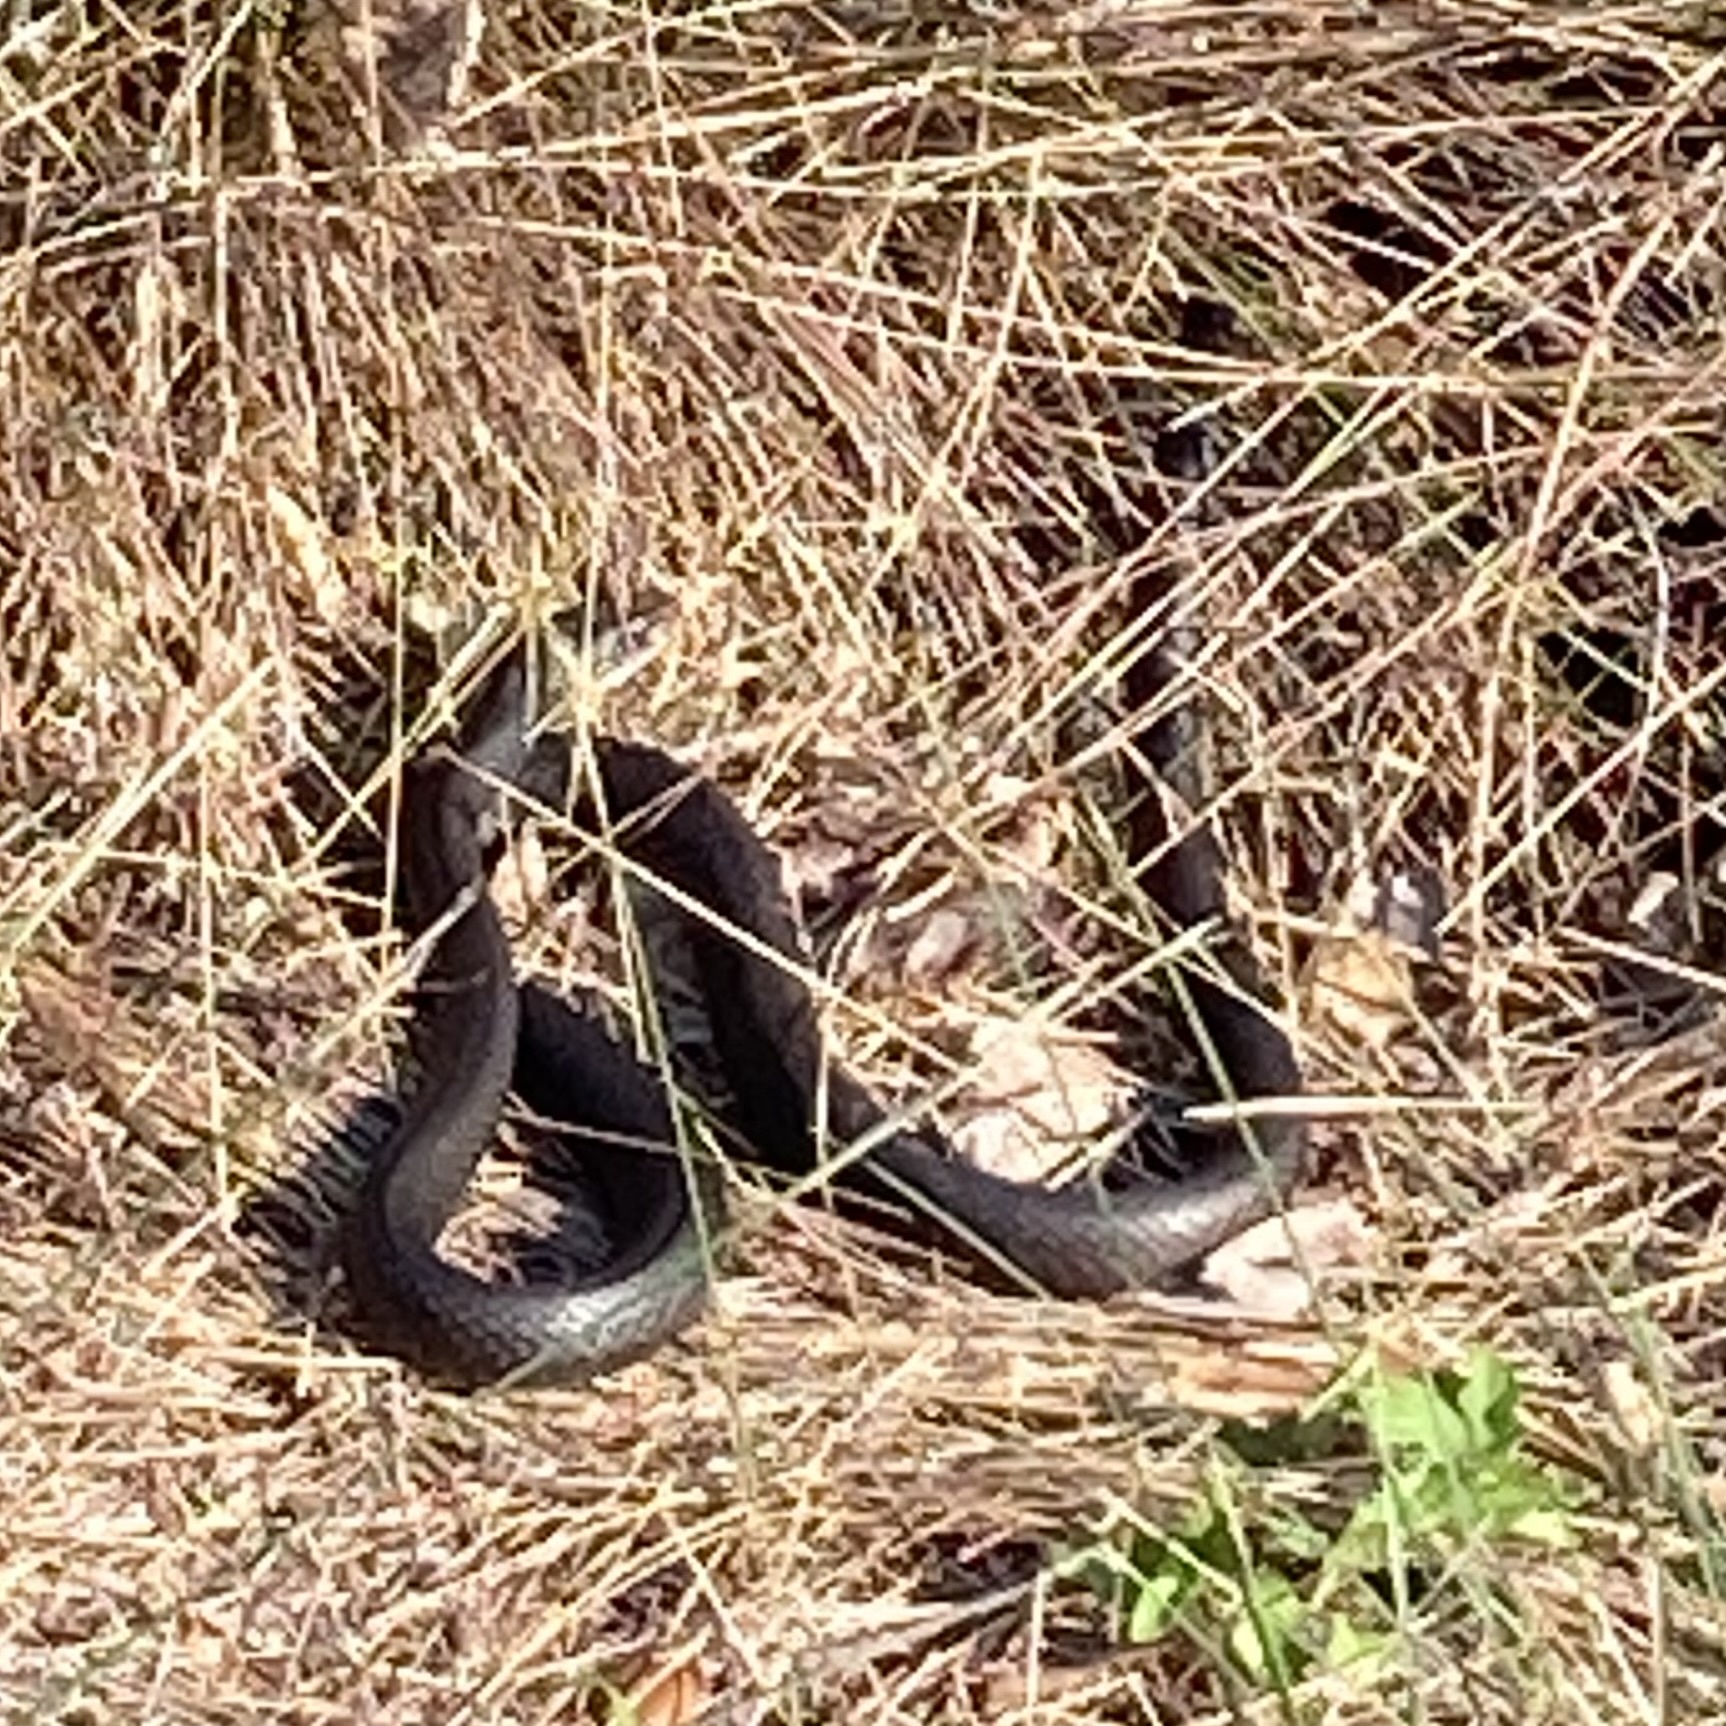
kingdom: Animalia
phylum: Chordata
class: Squamata
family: Colubridae
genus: Coluber
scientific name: Coluber constrictor
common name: Eastern racer
